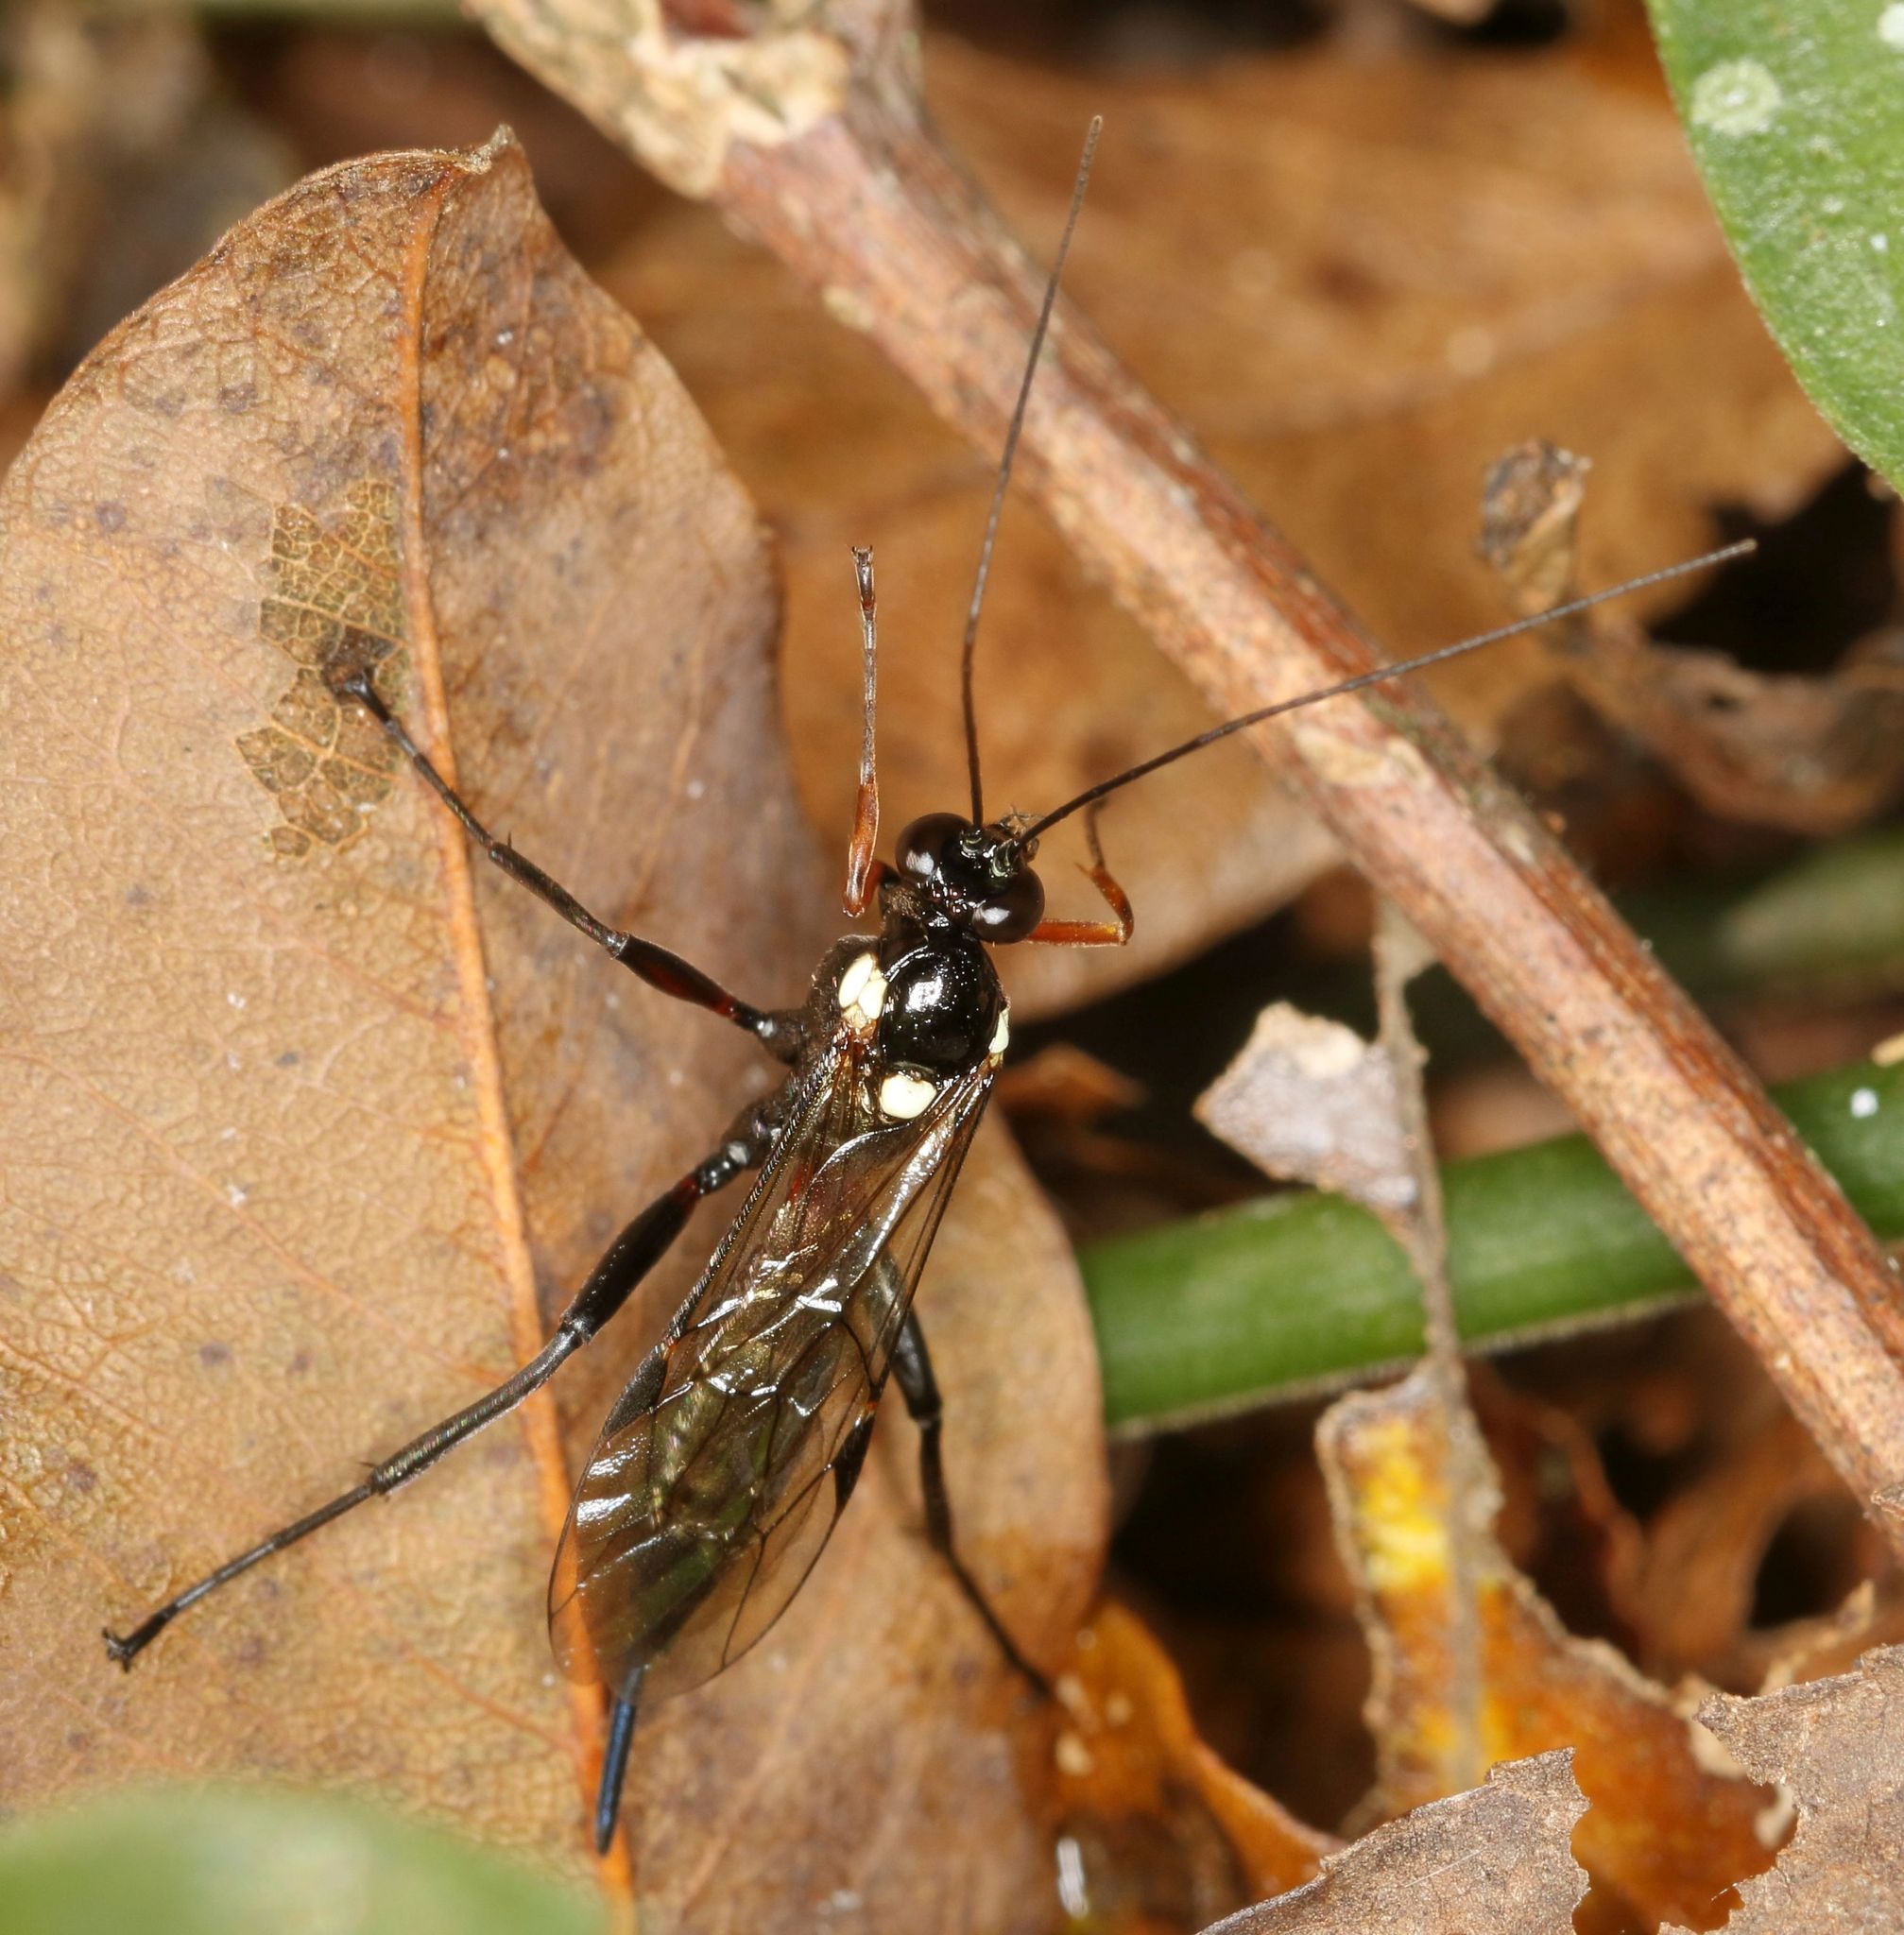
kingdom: Animalia
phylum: Arthropoda
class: Insecta
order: Hymenoptera
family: Ichneumonidae
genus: Pimpla
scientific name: Pimpla meridionalis
